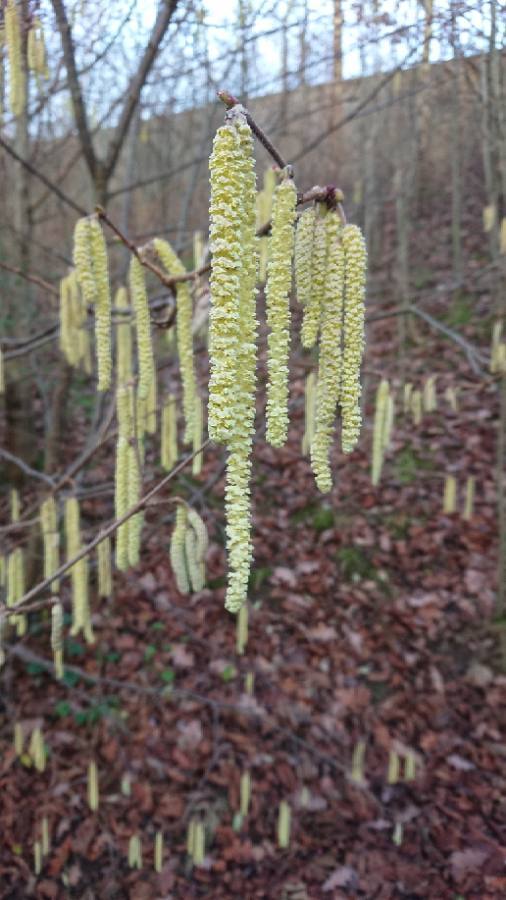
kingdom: Plantae
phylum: Tracheophyta
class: Magnoliopsida
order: Fagales
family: Betulaceae
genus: Corylus
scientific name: Corylus avellana
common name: European hazel
